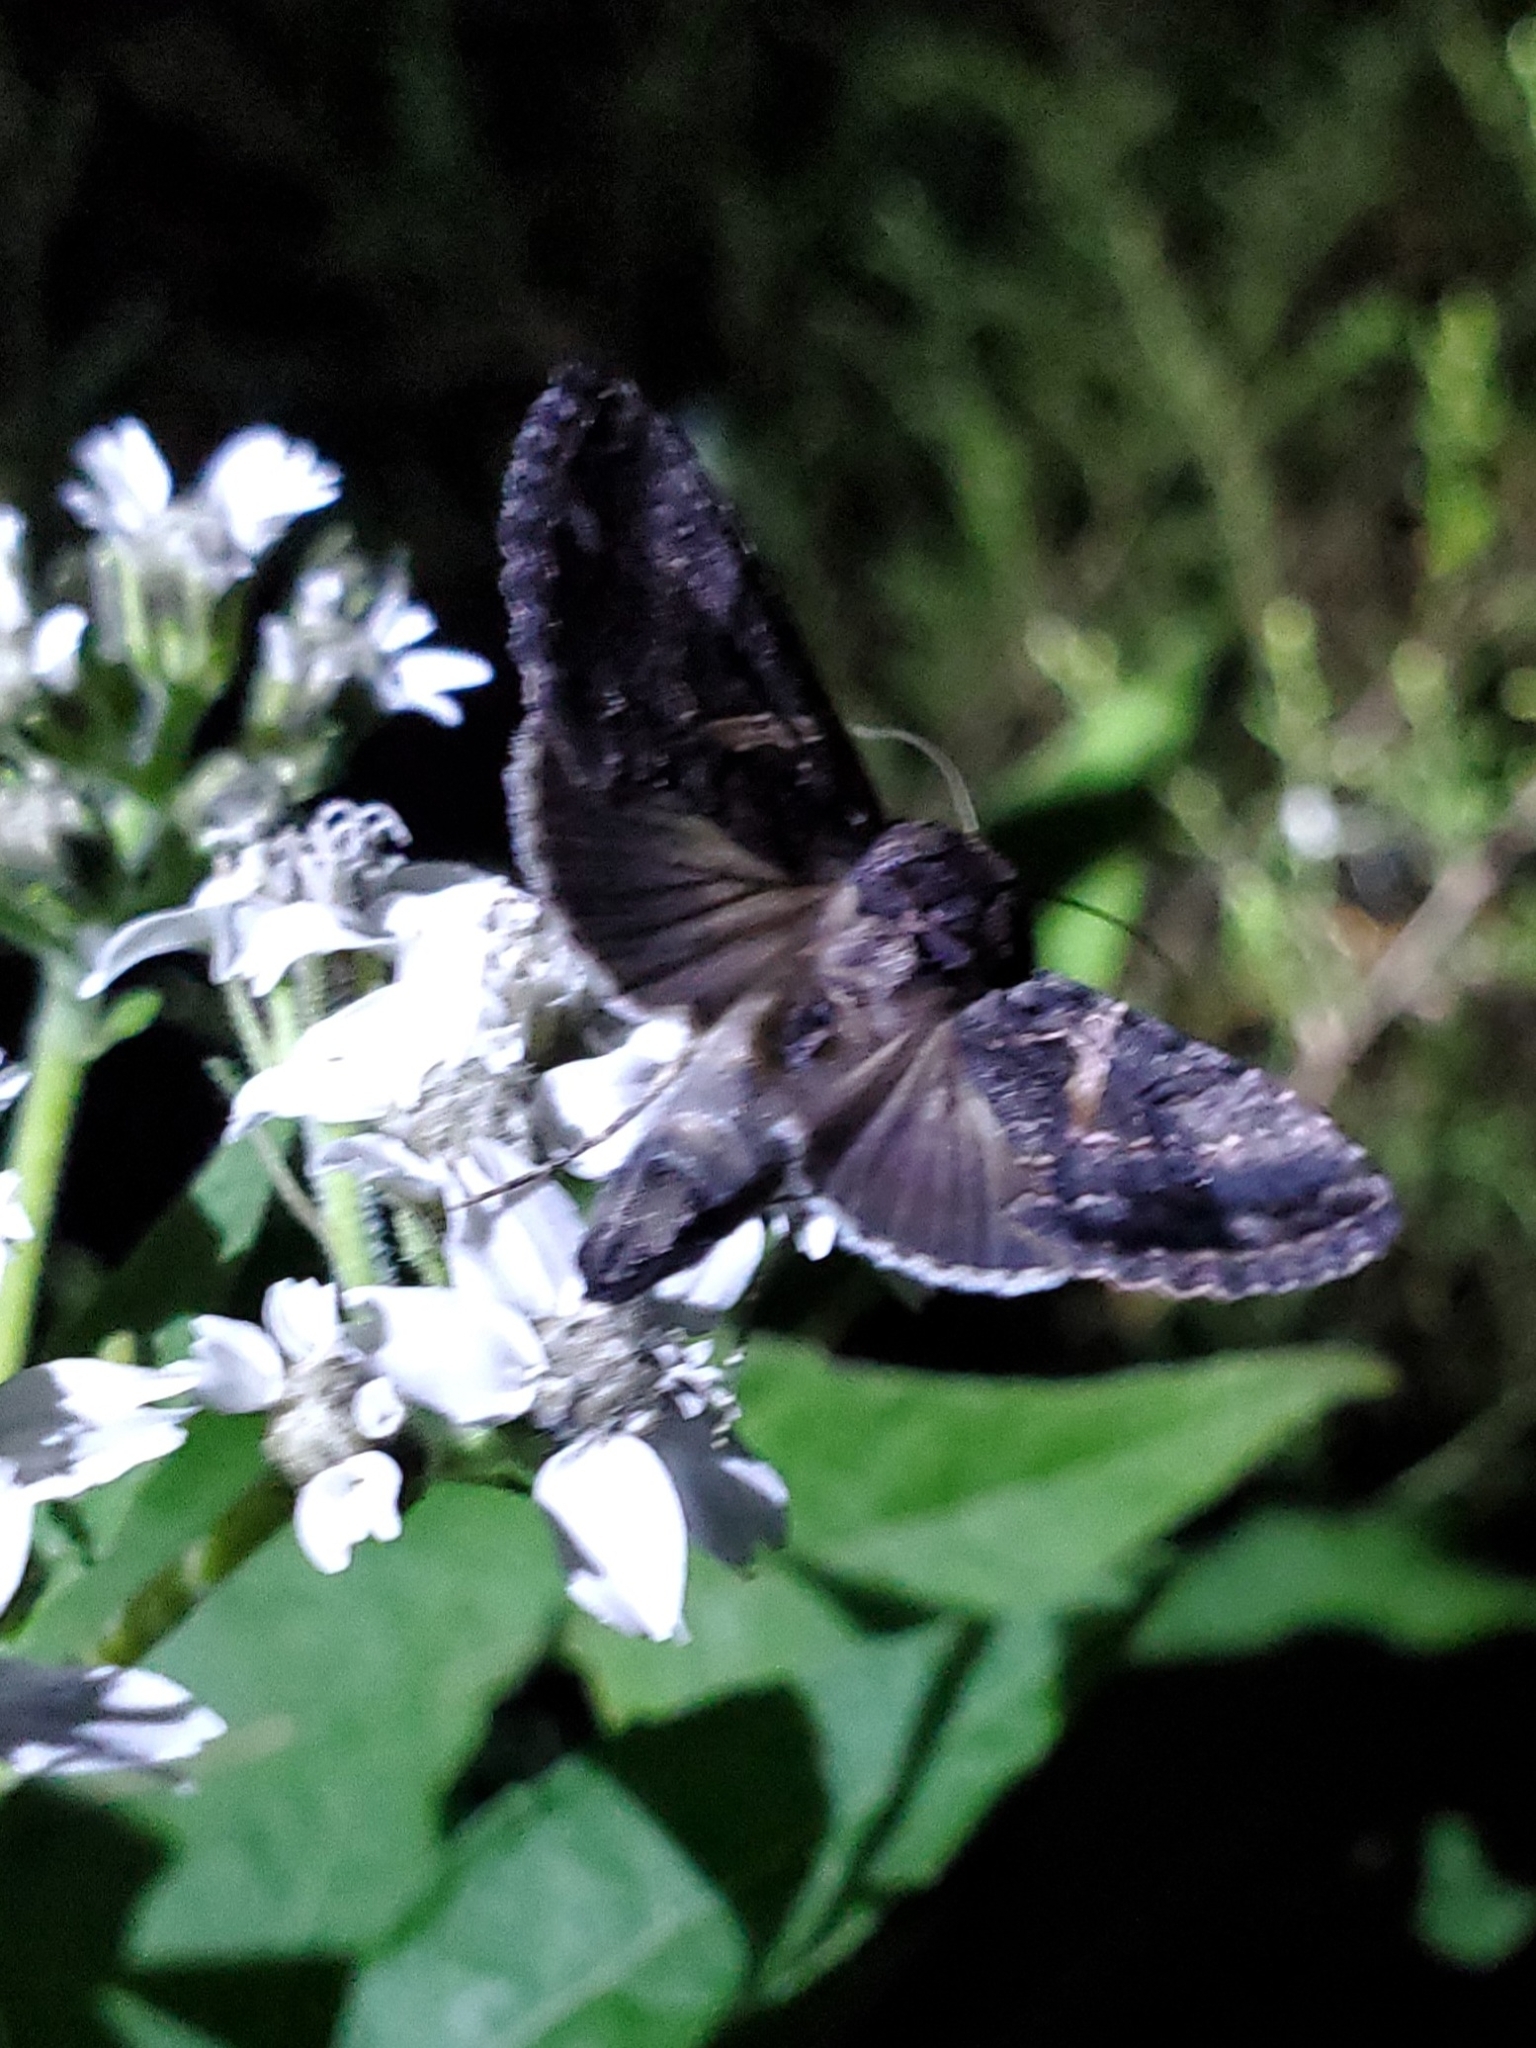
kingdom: Animalia
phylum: Arthropoda
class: Insecta
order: Lepidoptera
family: Noctuidae
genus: Ctenoplusia
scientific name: Ctenoplusia oxygramma
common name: Sharp-stigma looper moth
